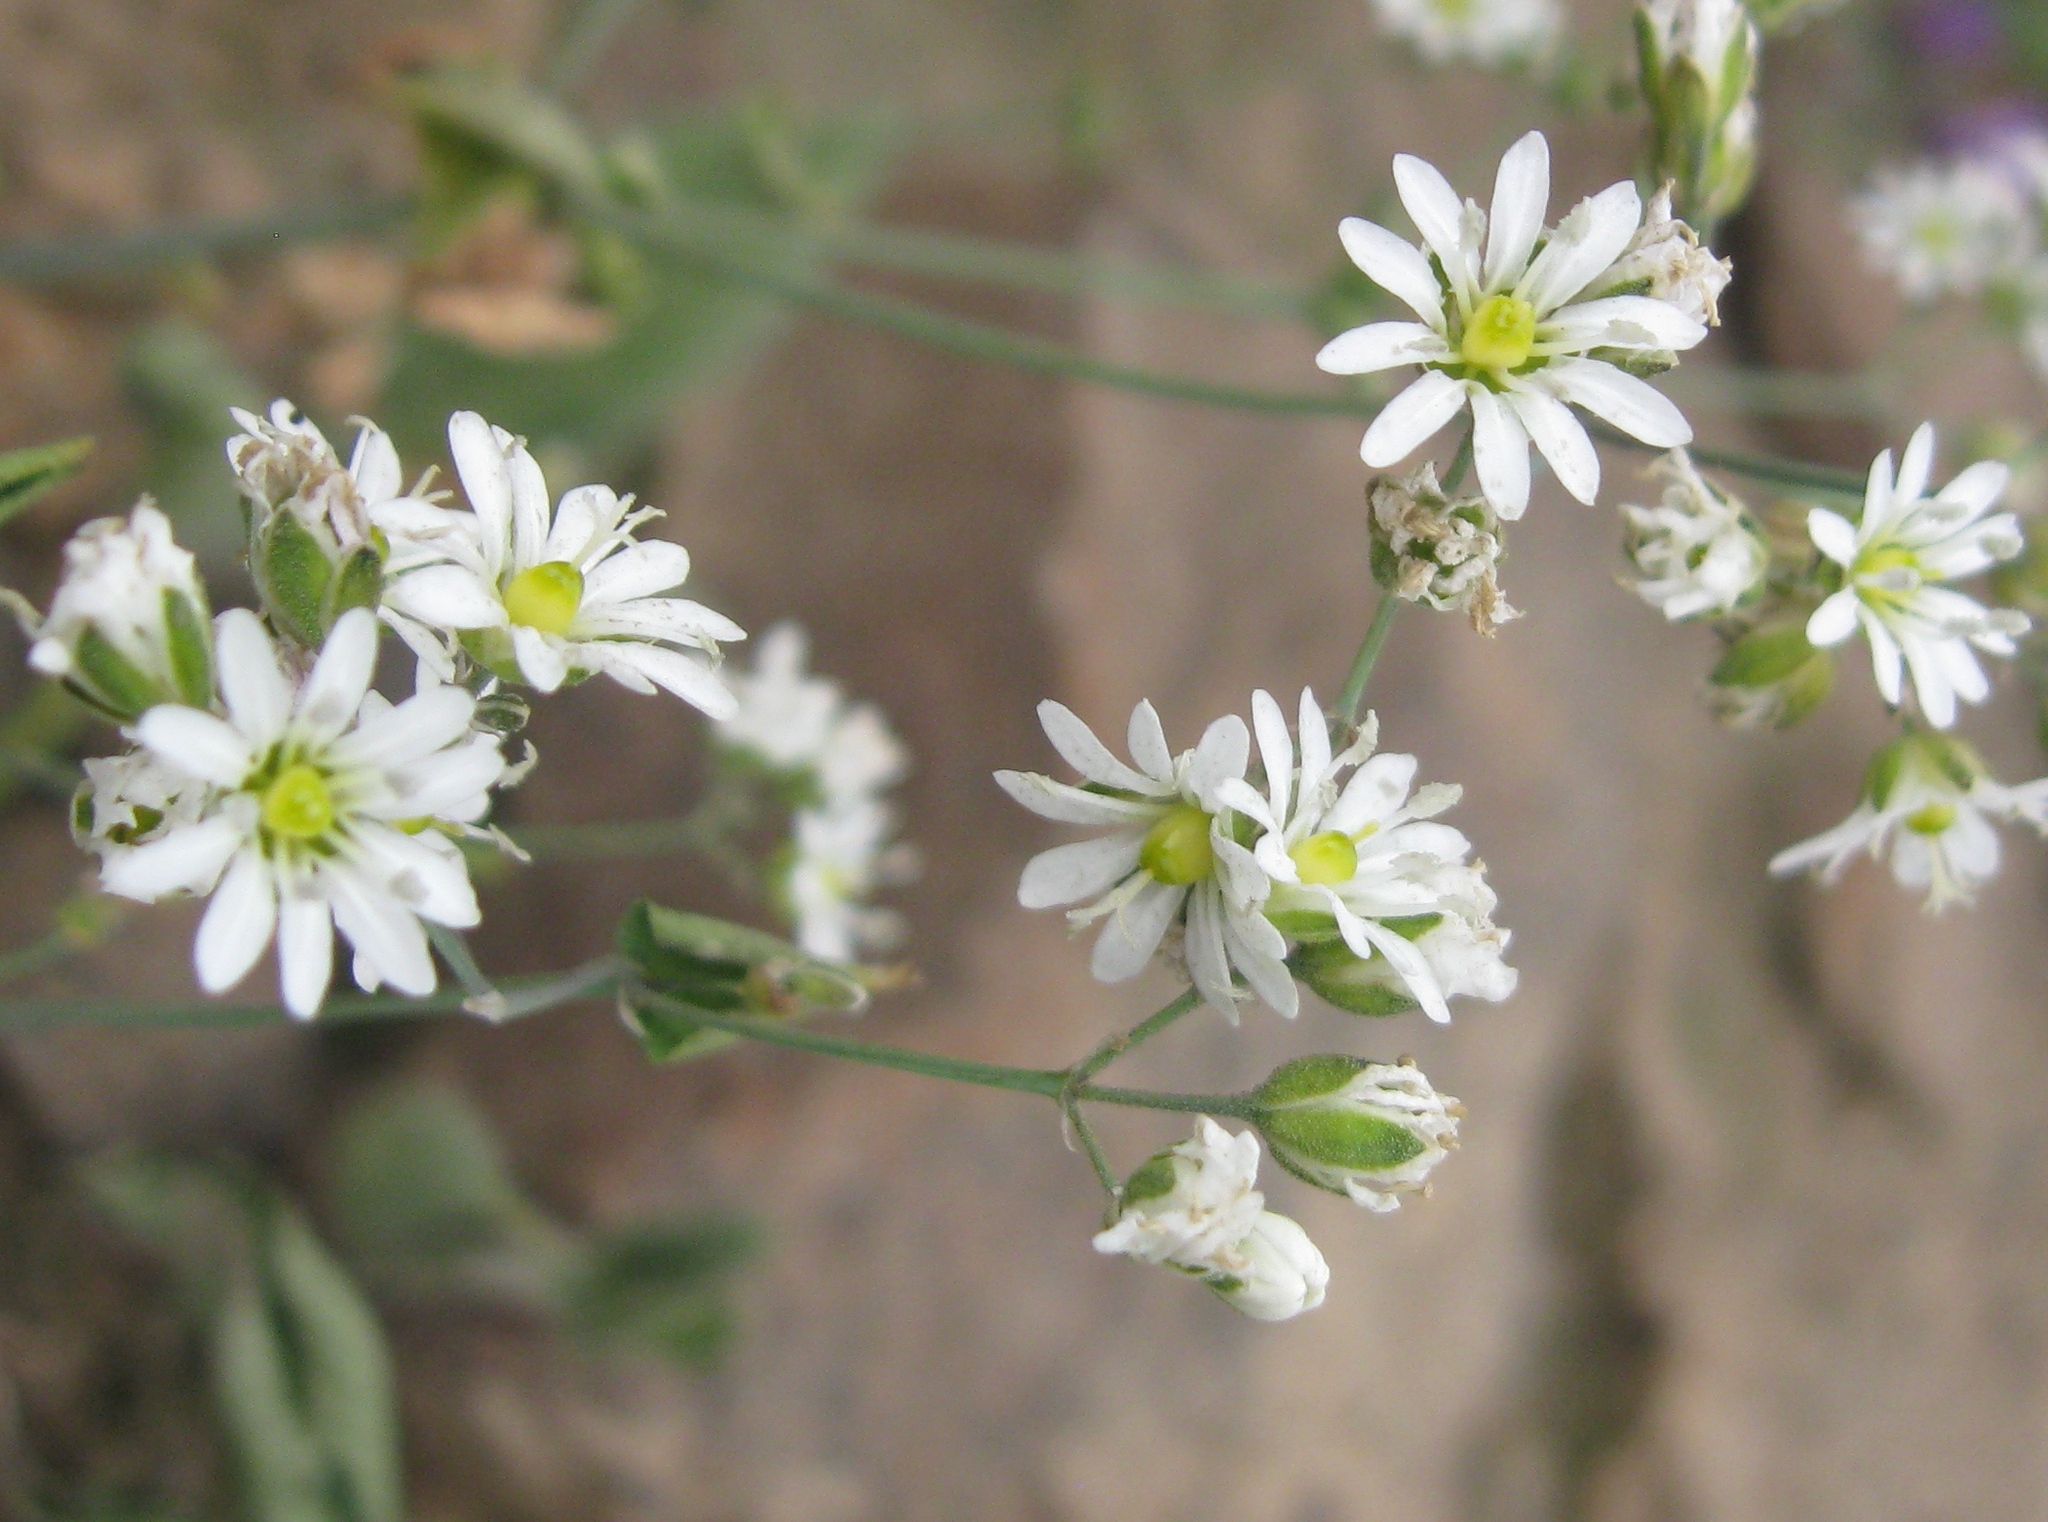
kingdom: Plantae
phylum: Tracheophyta
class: Magnoliopsida
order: Caryophyllales
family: Caryophyllaceae
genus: Drymaria
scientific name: Drymaria paposana
